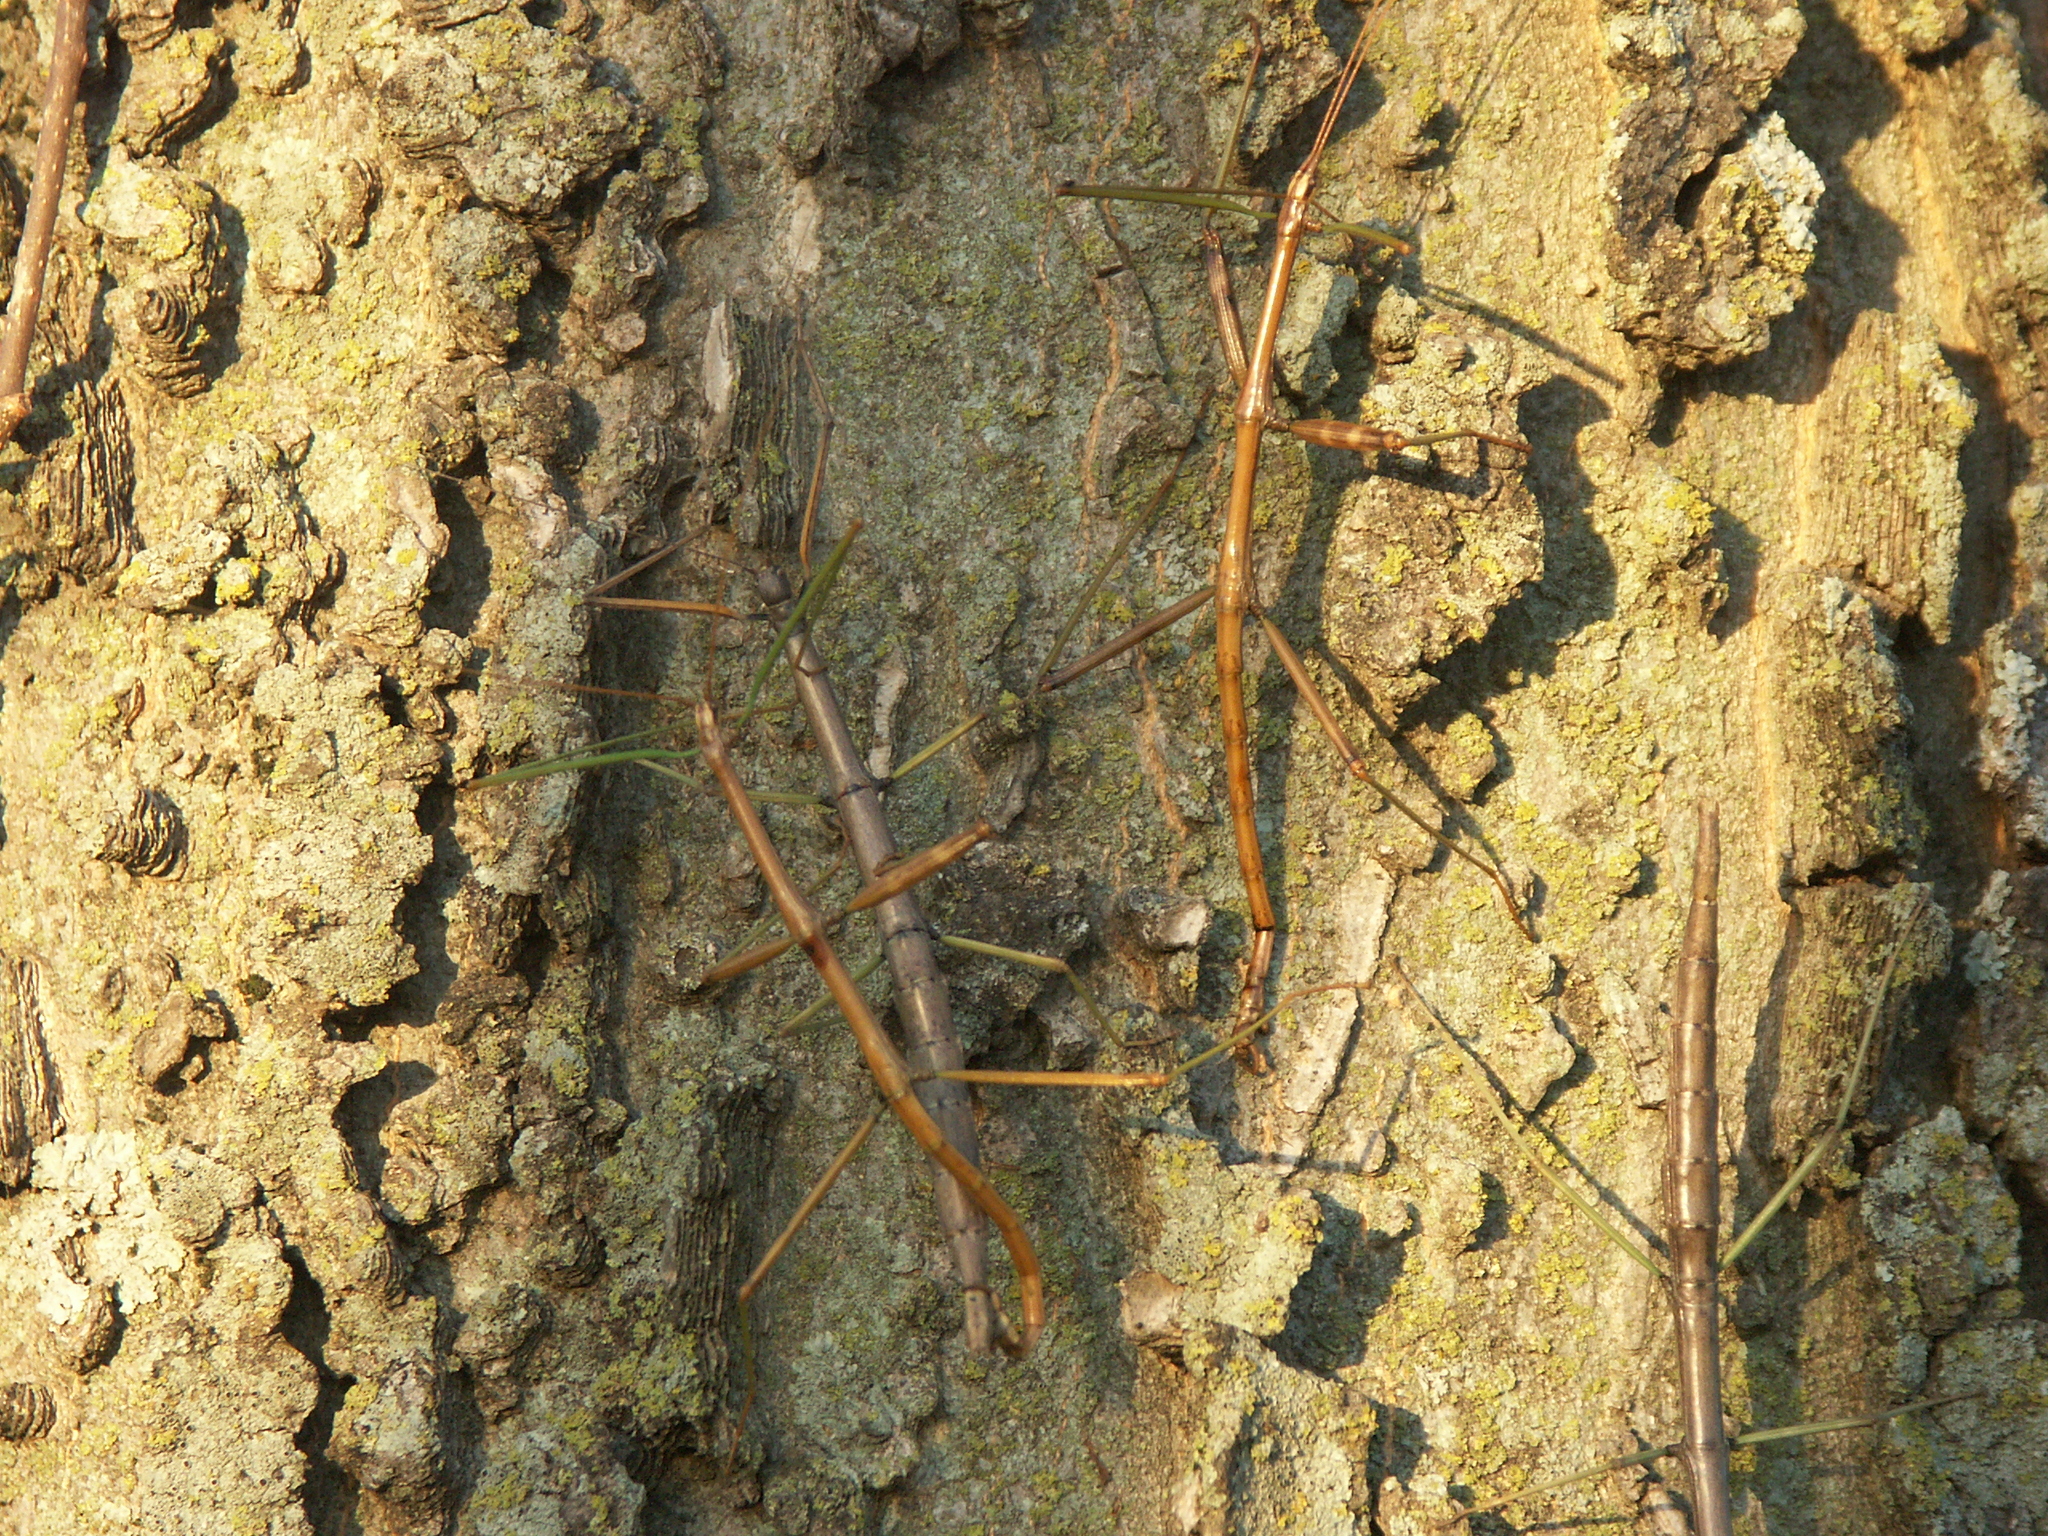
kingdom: Animalia
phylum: Arthropoda
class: Insecta
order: Phasmida
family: Diapheromeridae
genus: Diapheromera
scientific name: Diapheromera femorata
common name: Common american walkingstick
